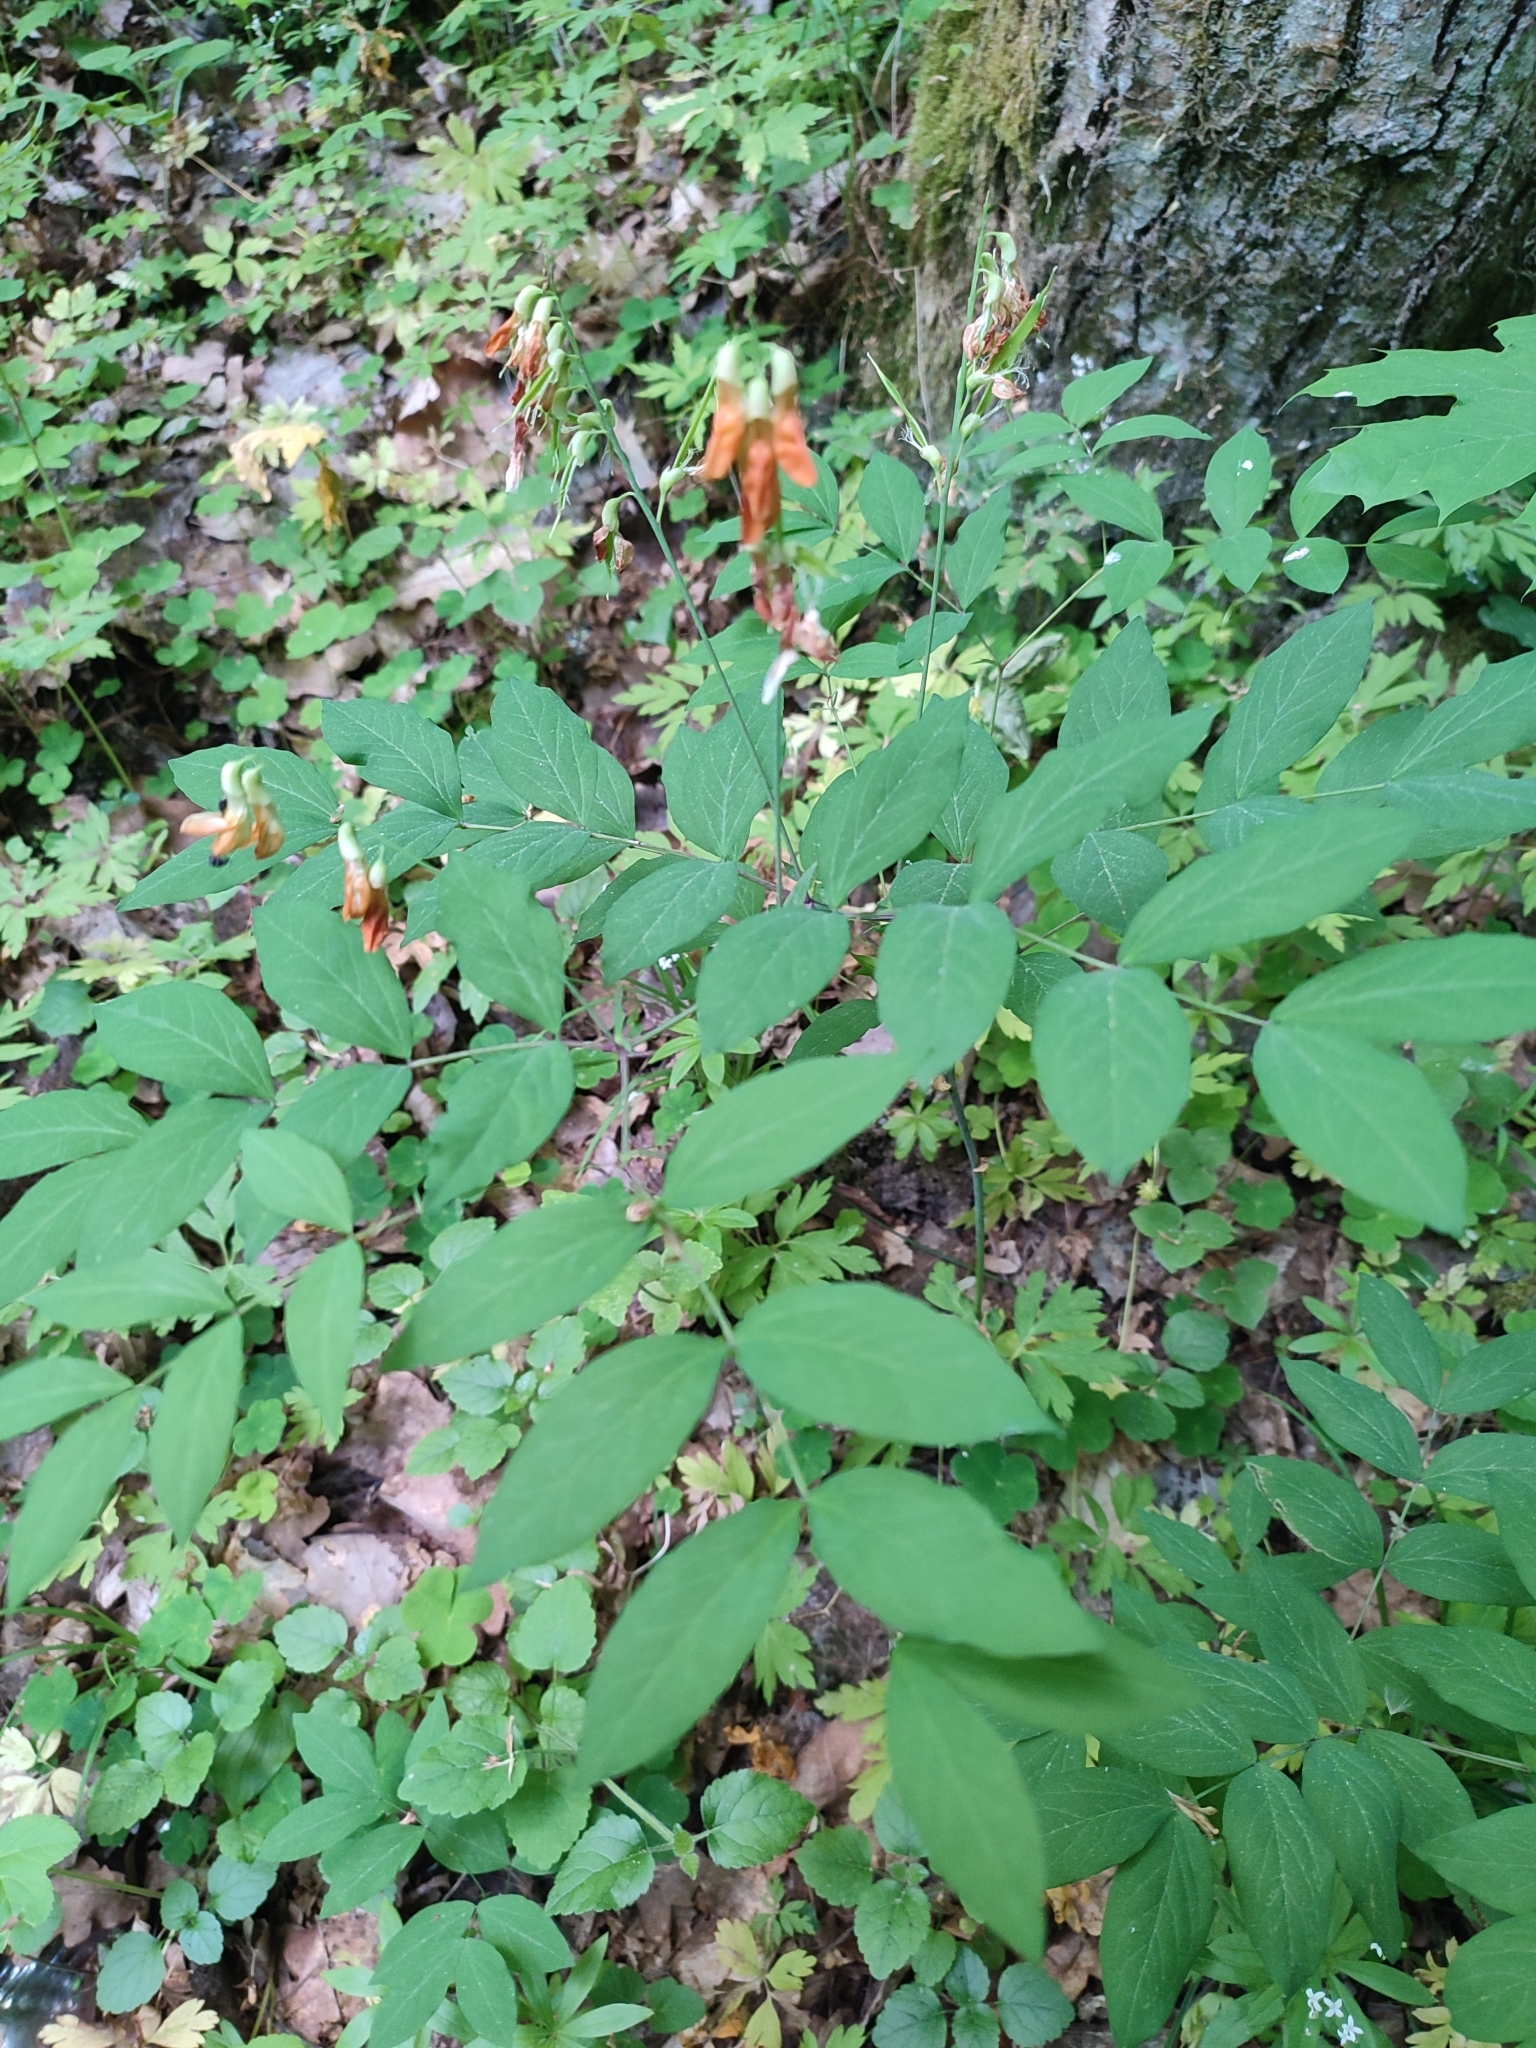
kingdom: Plantae
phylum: Tracheophyta
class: Magnoliopsida
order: Fabales
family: Fabaceae
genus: Lathyrus
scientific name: Lathyrus laevigatus
